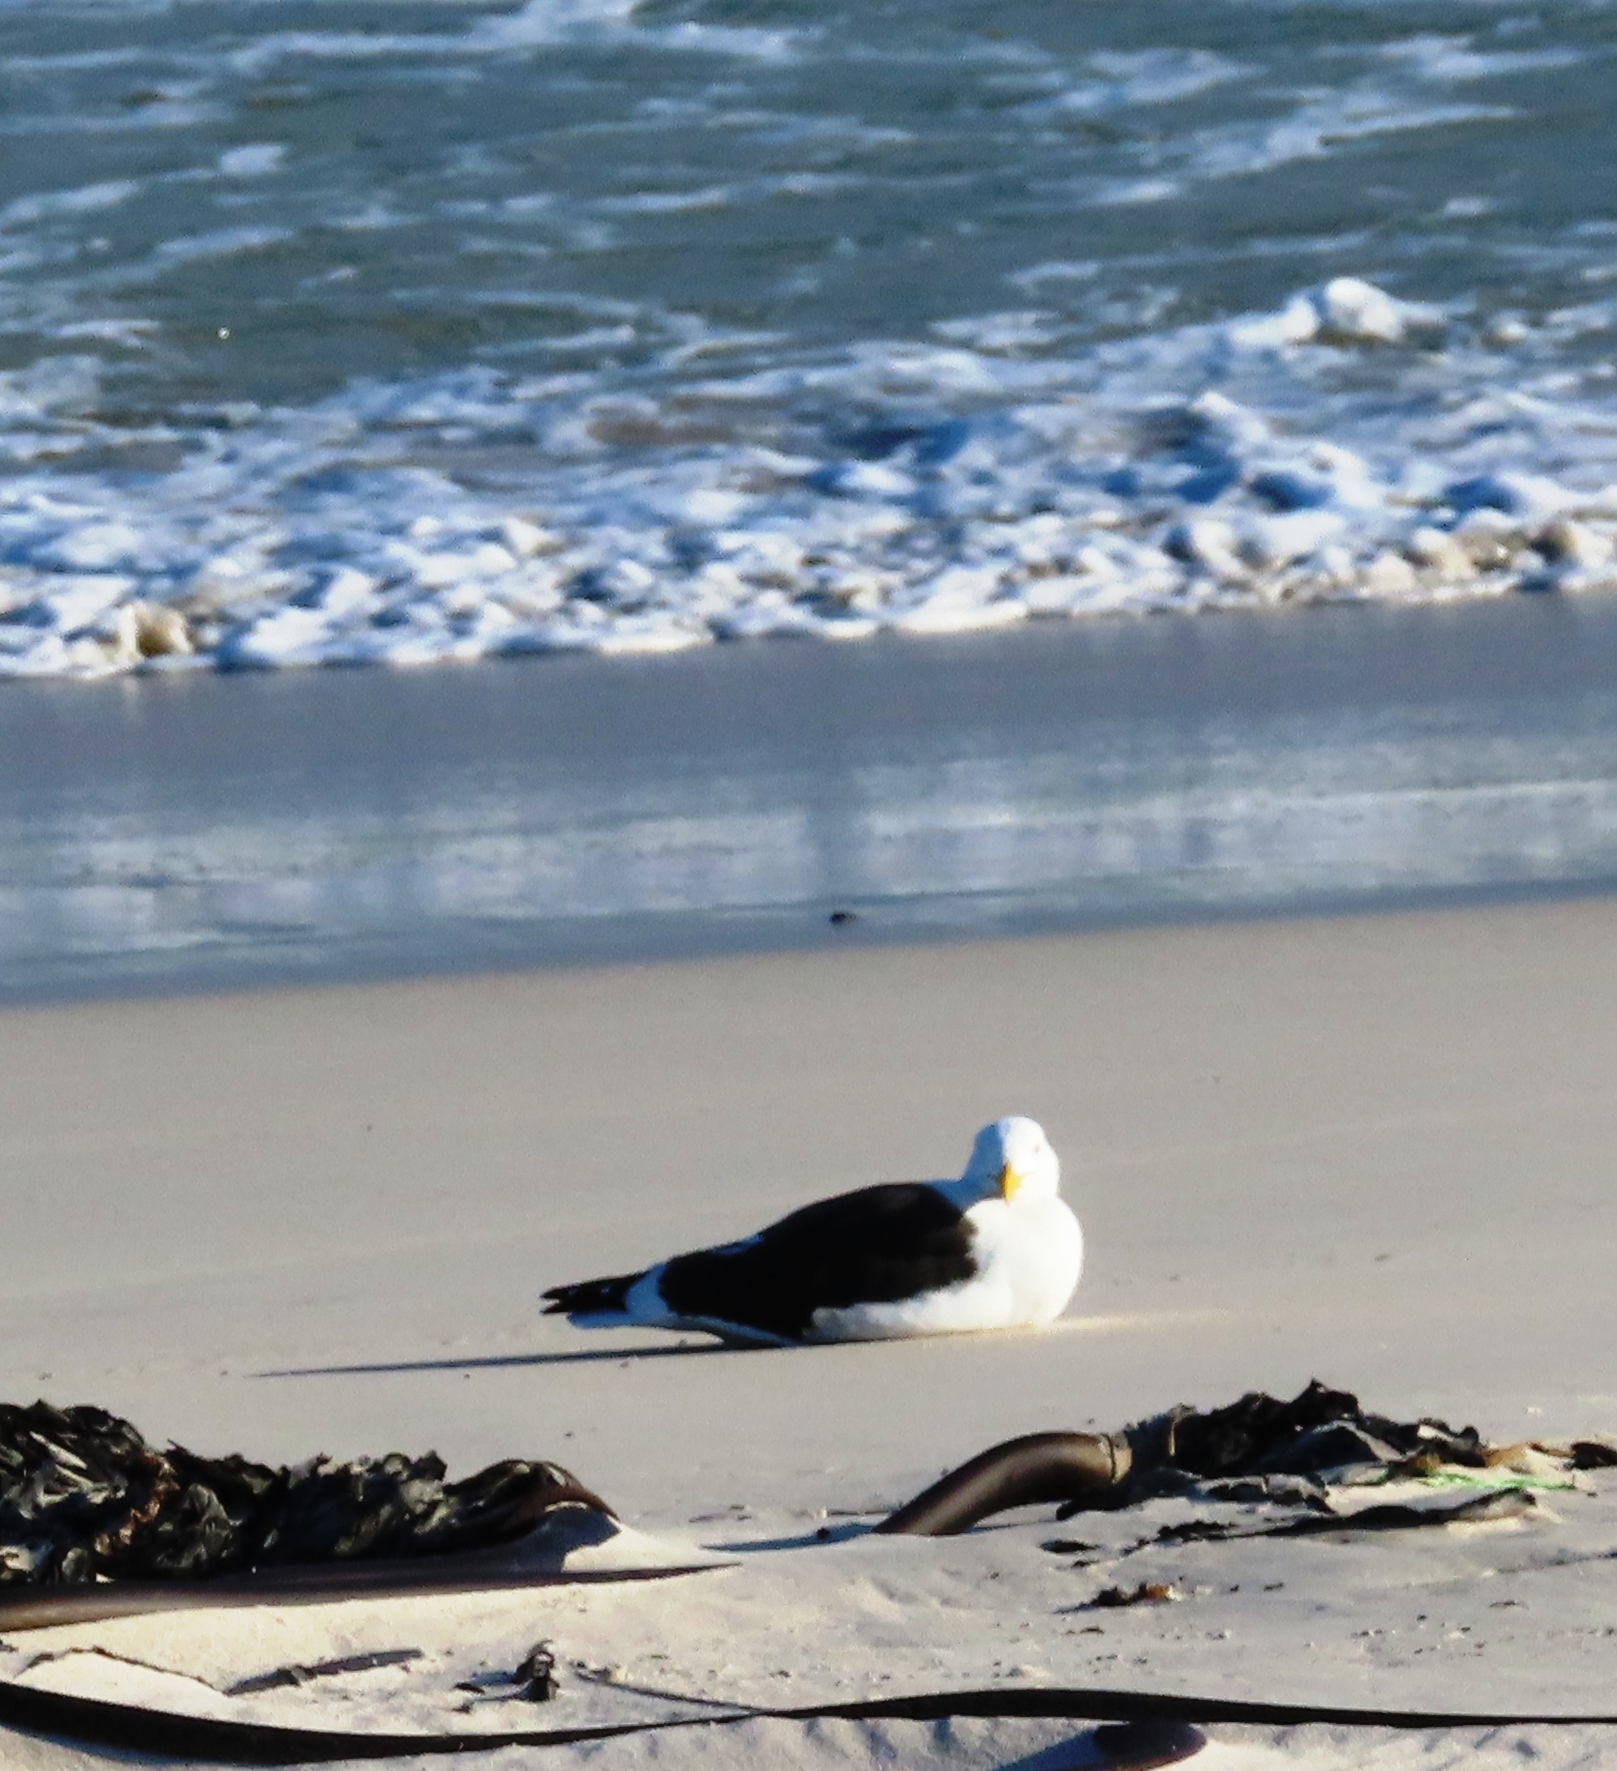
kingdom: Animalia
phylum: Chordata
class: Aves
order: Charadriiformes
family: Laridae
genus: Larus
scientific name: Larus dominicanus
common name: Kelp gull
